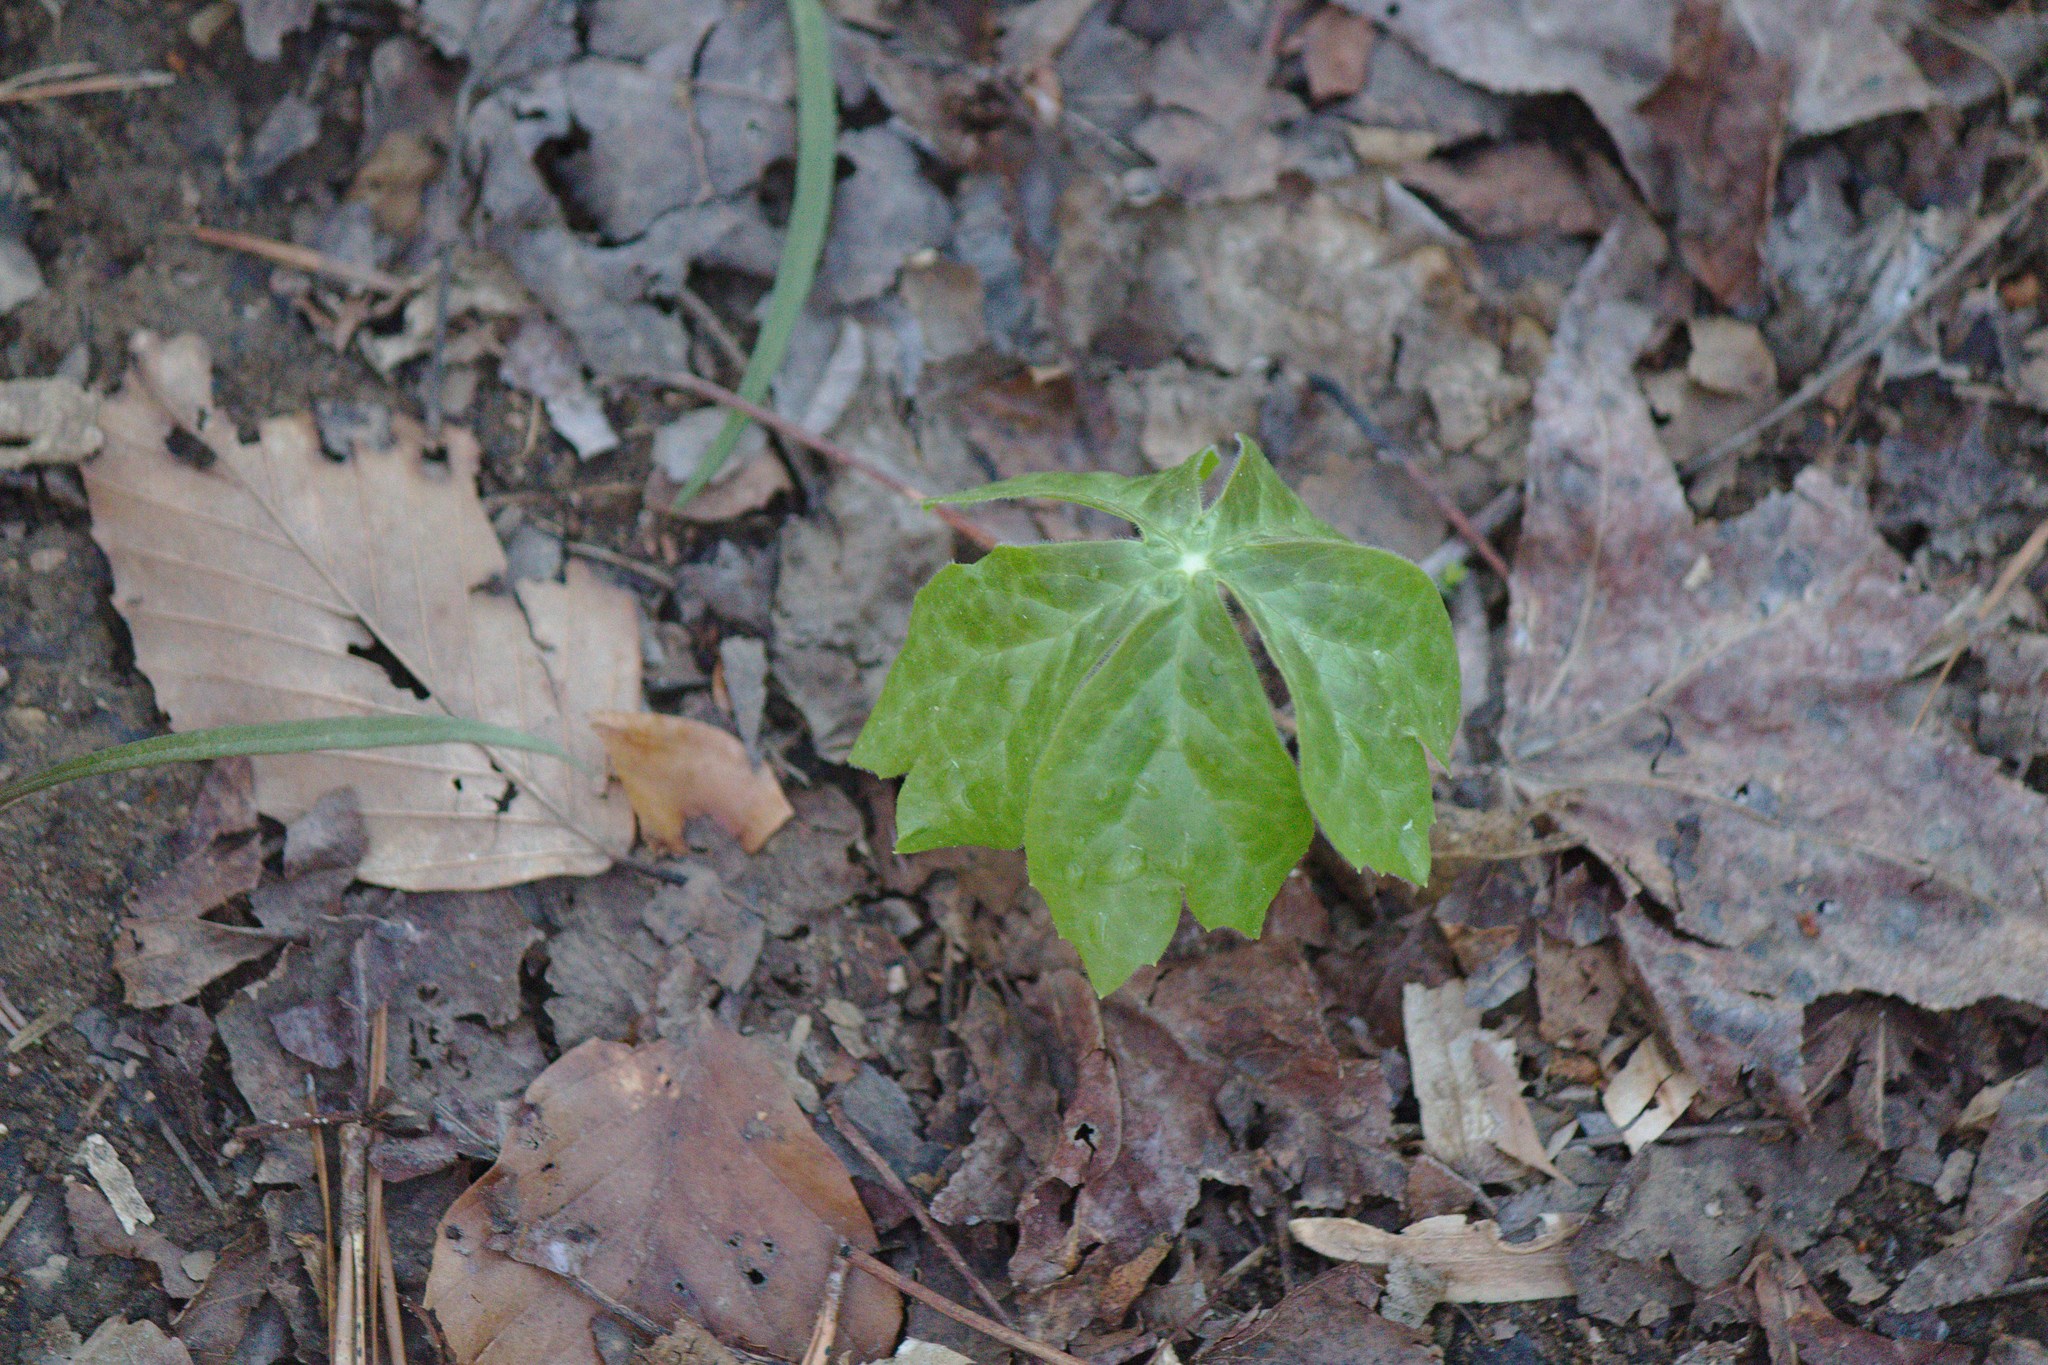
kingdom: Plantae
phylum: Tracheophyta
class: Magnoliopsida
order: Ranunculales
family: Berberidaceae
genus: Podophyllum
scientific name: Podophyllum peltatum
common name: Wild mandrake
